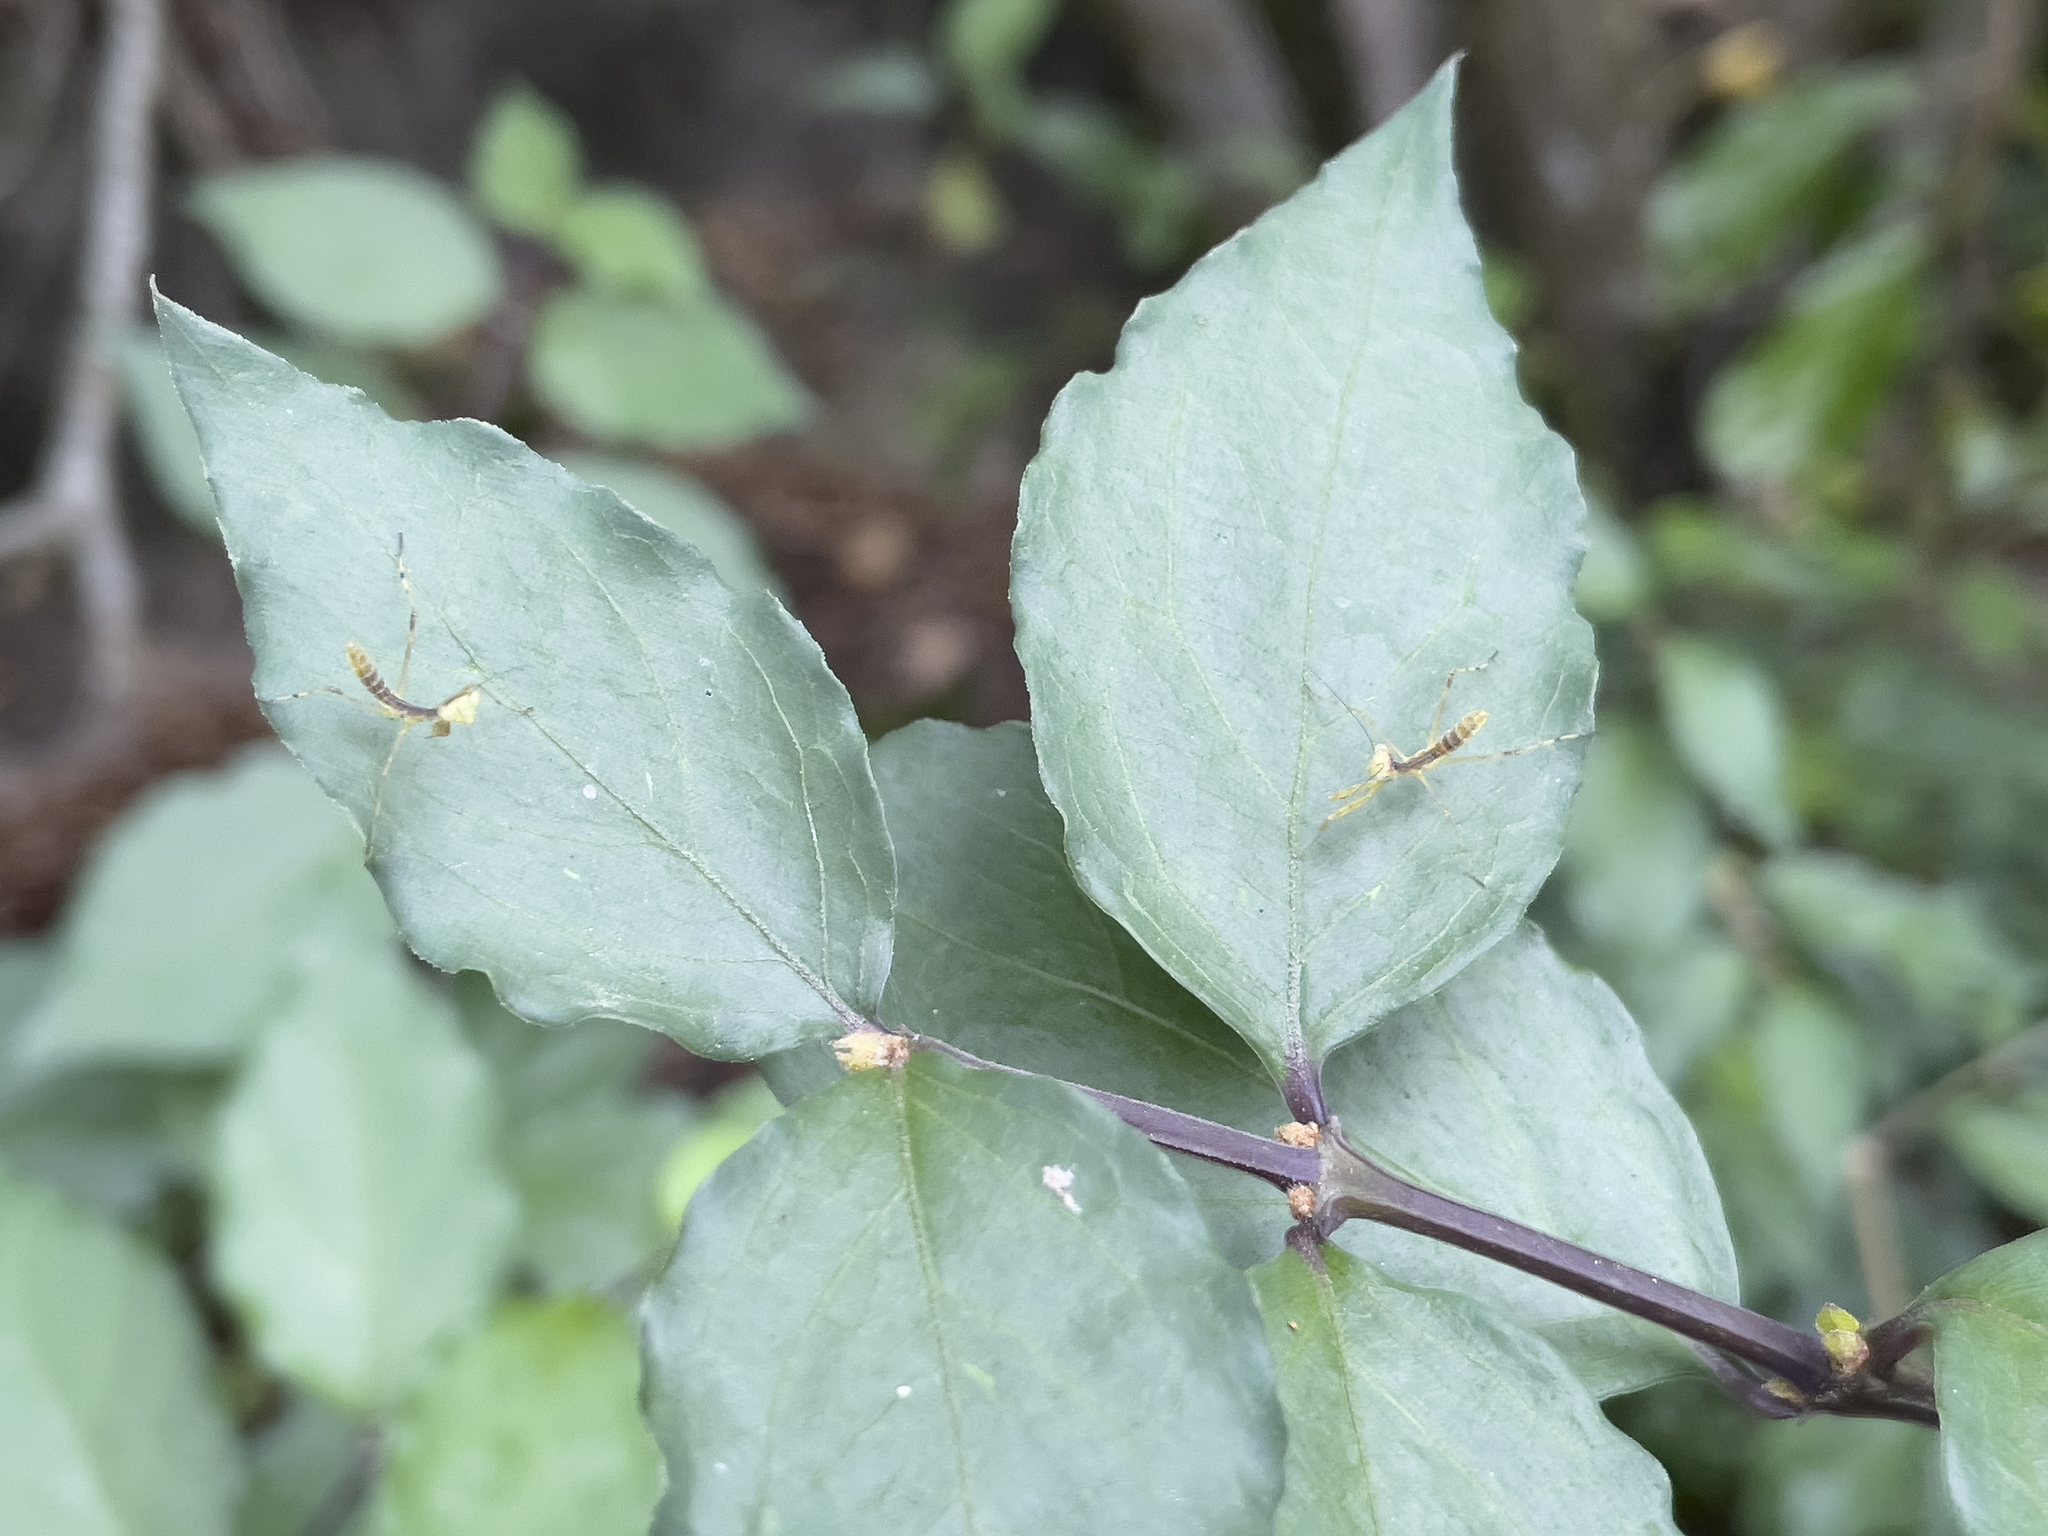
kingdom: Animalia
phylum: Arthropoda
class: Insecta
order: Mantodea
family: Mantidae
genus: Hierodula
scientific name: Hierodula patellifera
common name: Asian mantis
